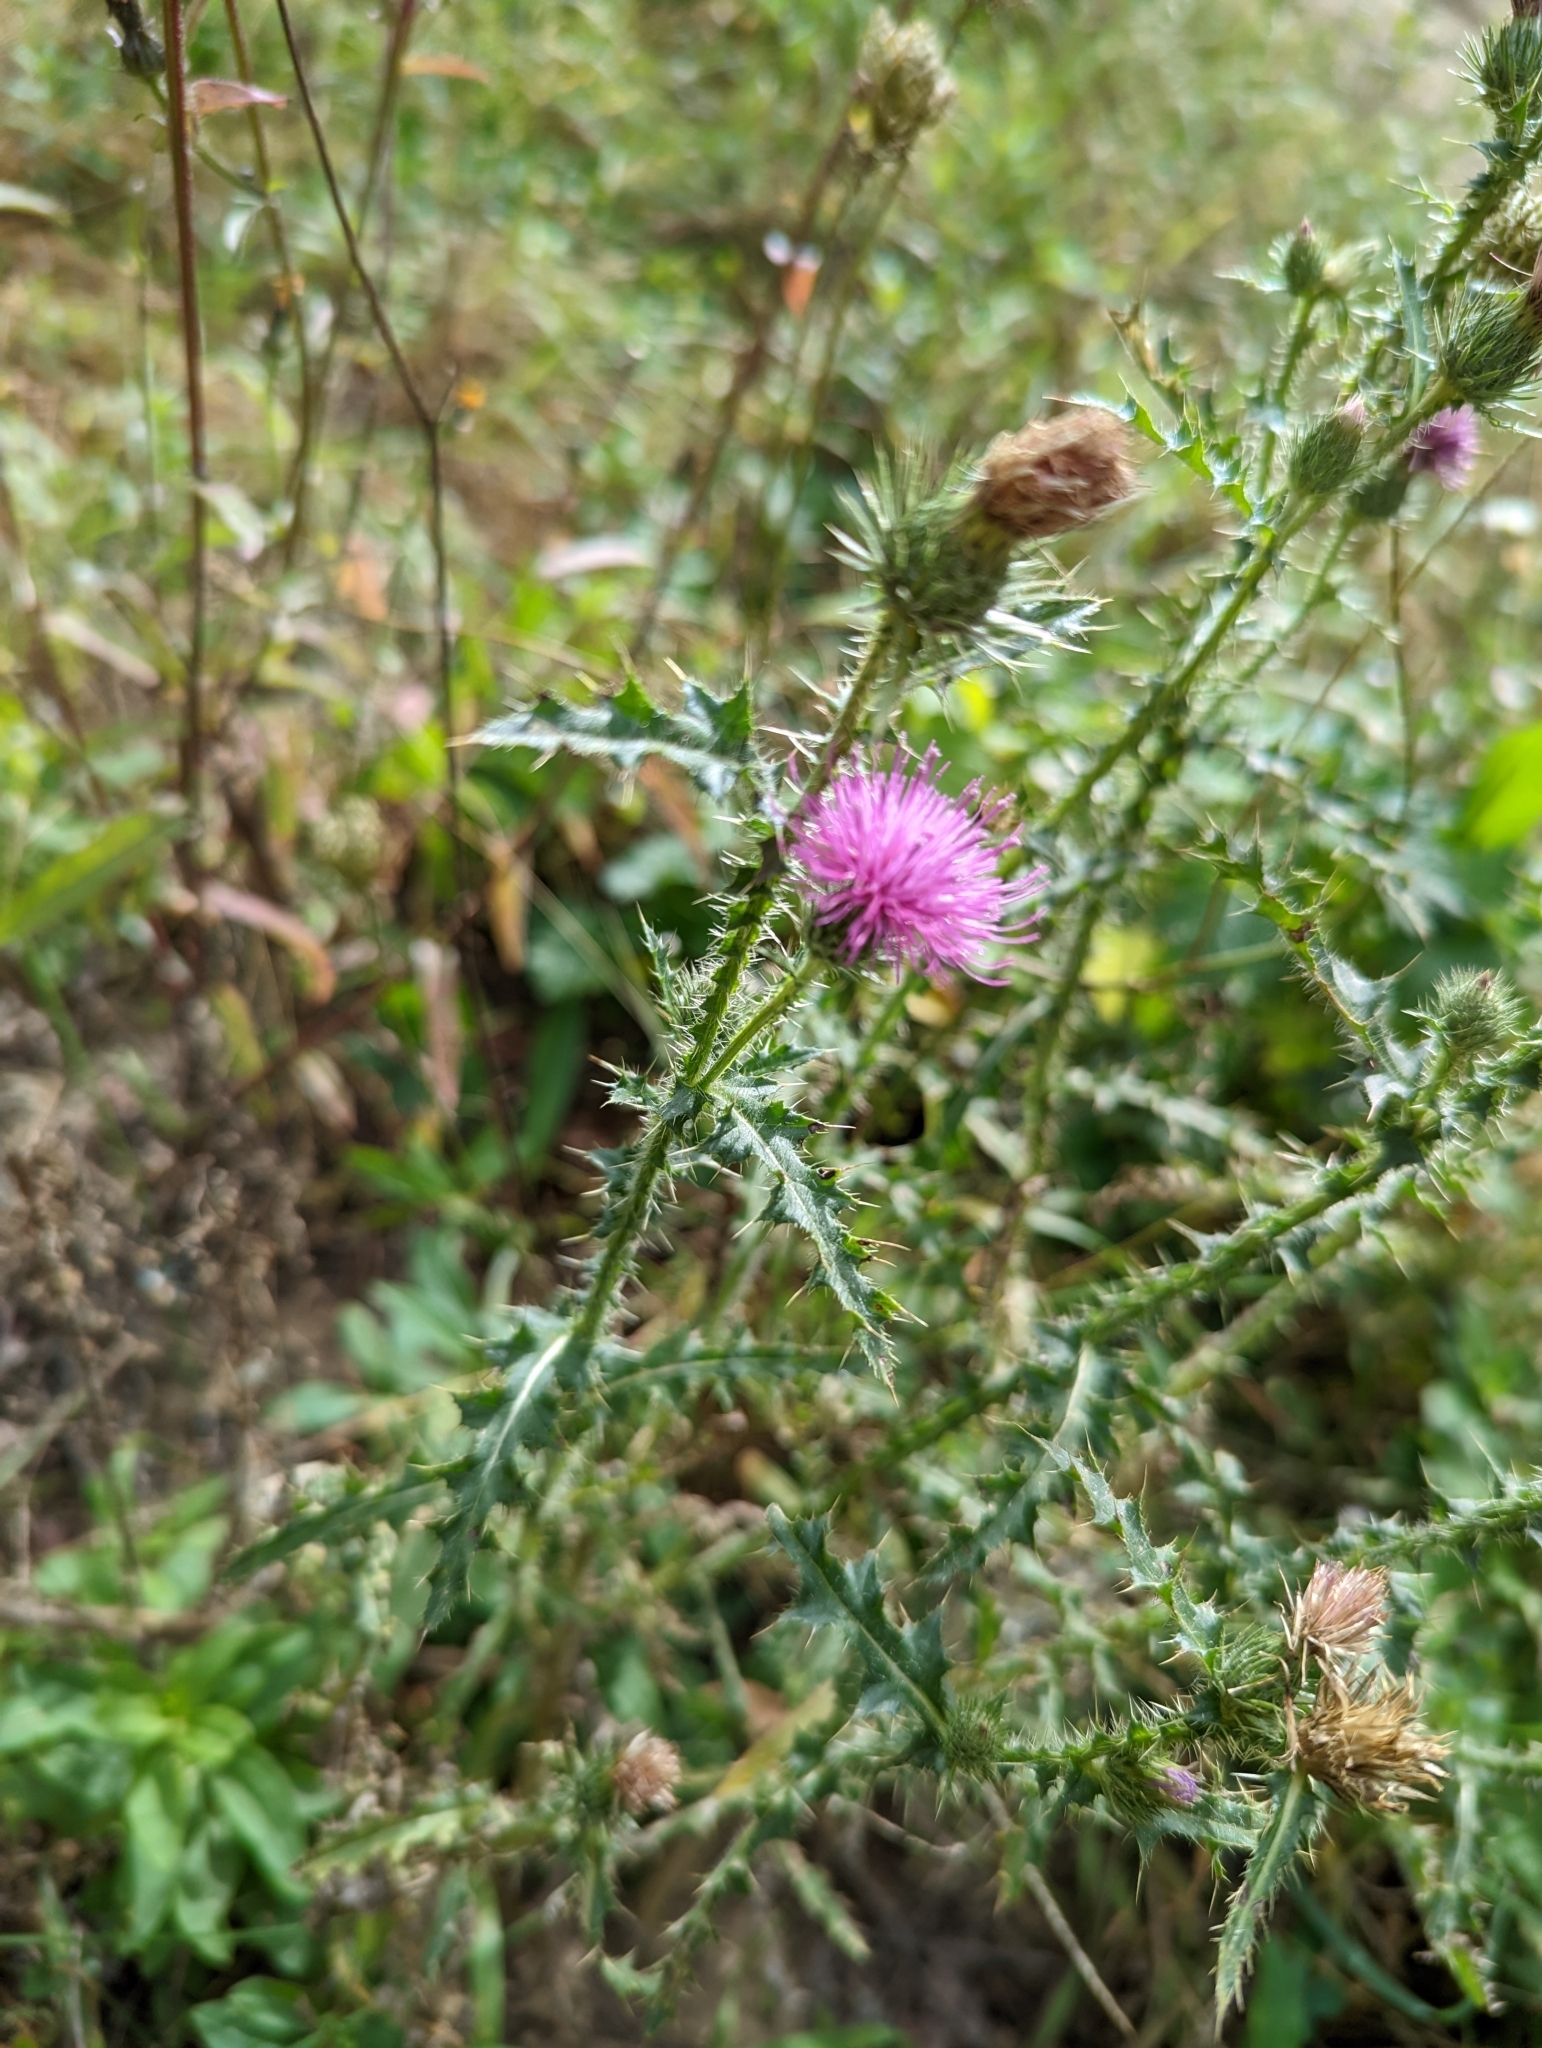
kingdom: Plantae
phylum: Tracheophyta
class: Magnoliopsida
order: Asterales
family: Asteraceae
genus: Carduus
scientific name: Carduus acanthoides
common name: Plumeless thistle
